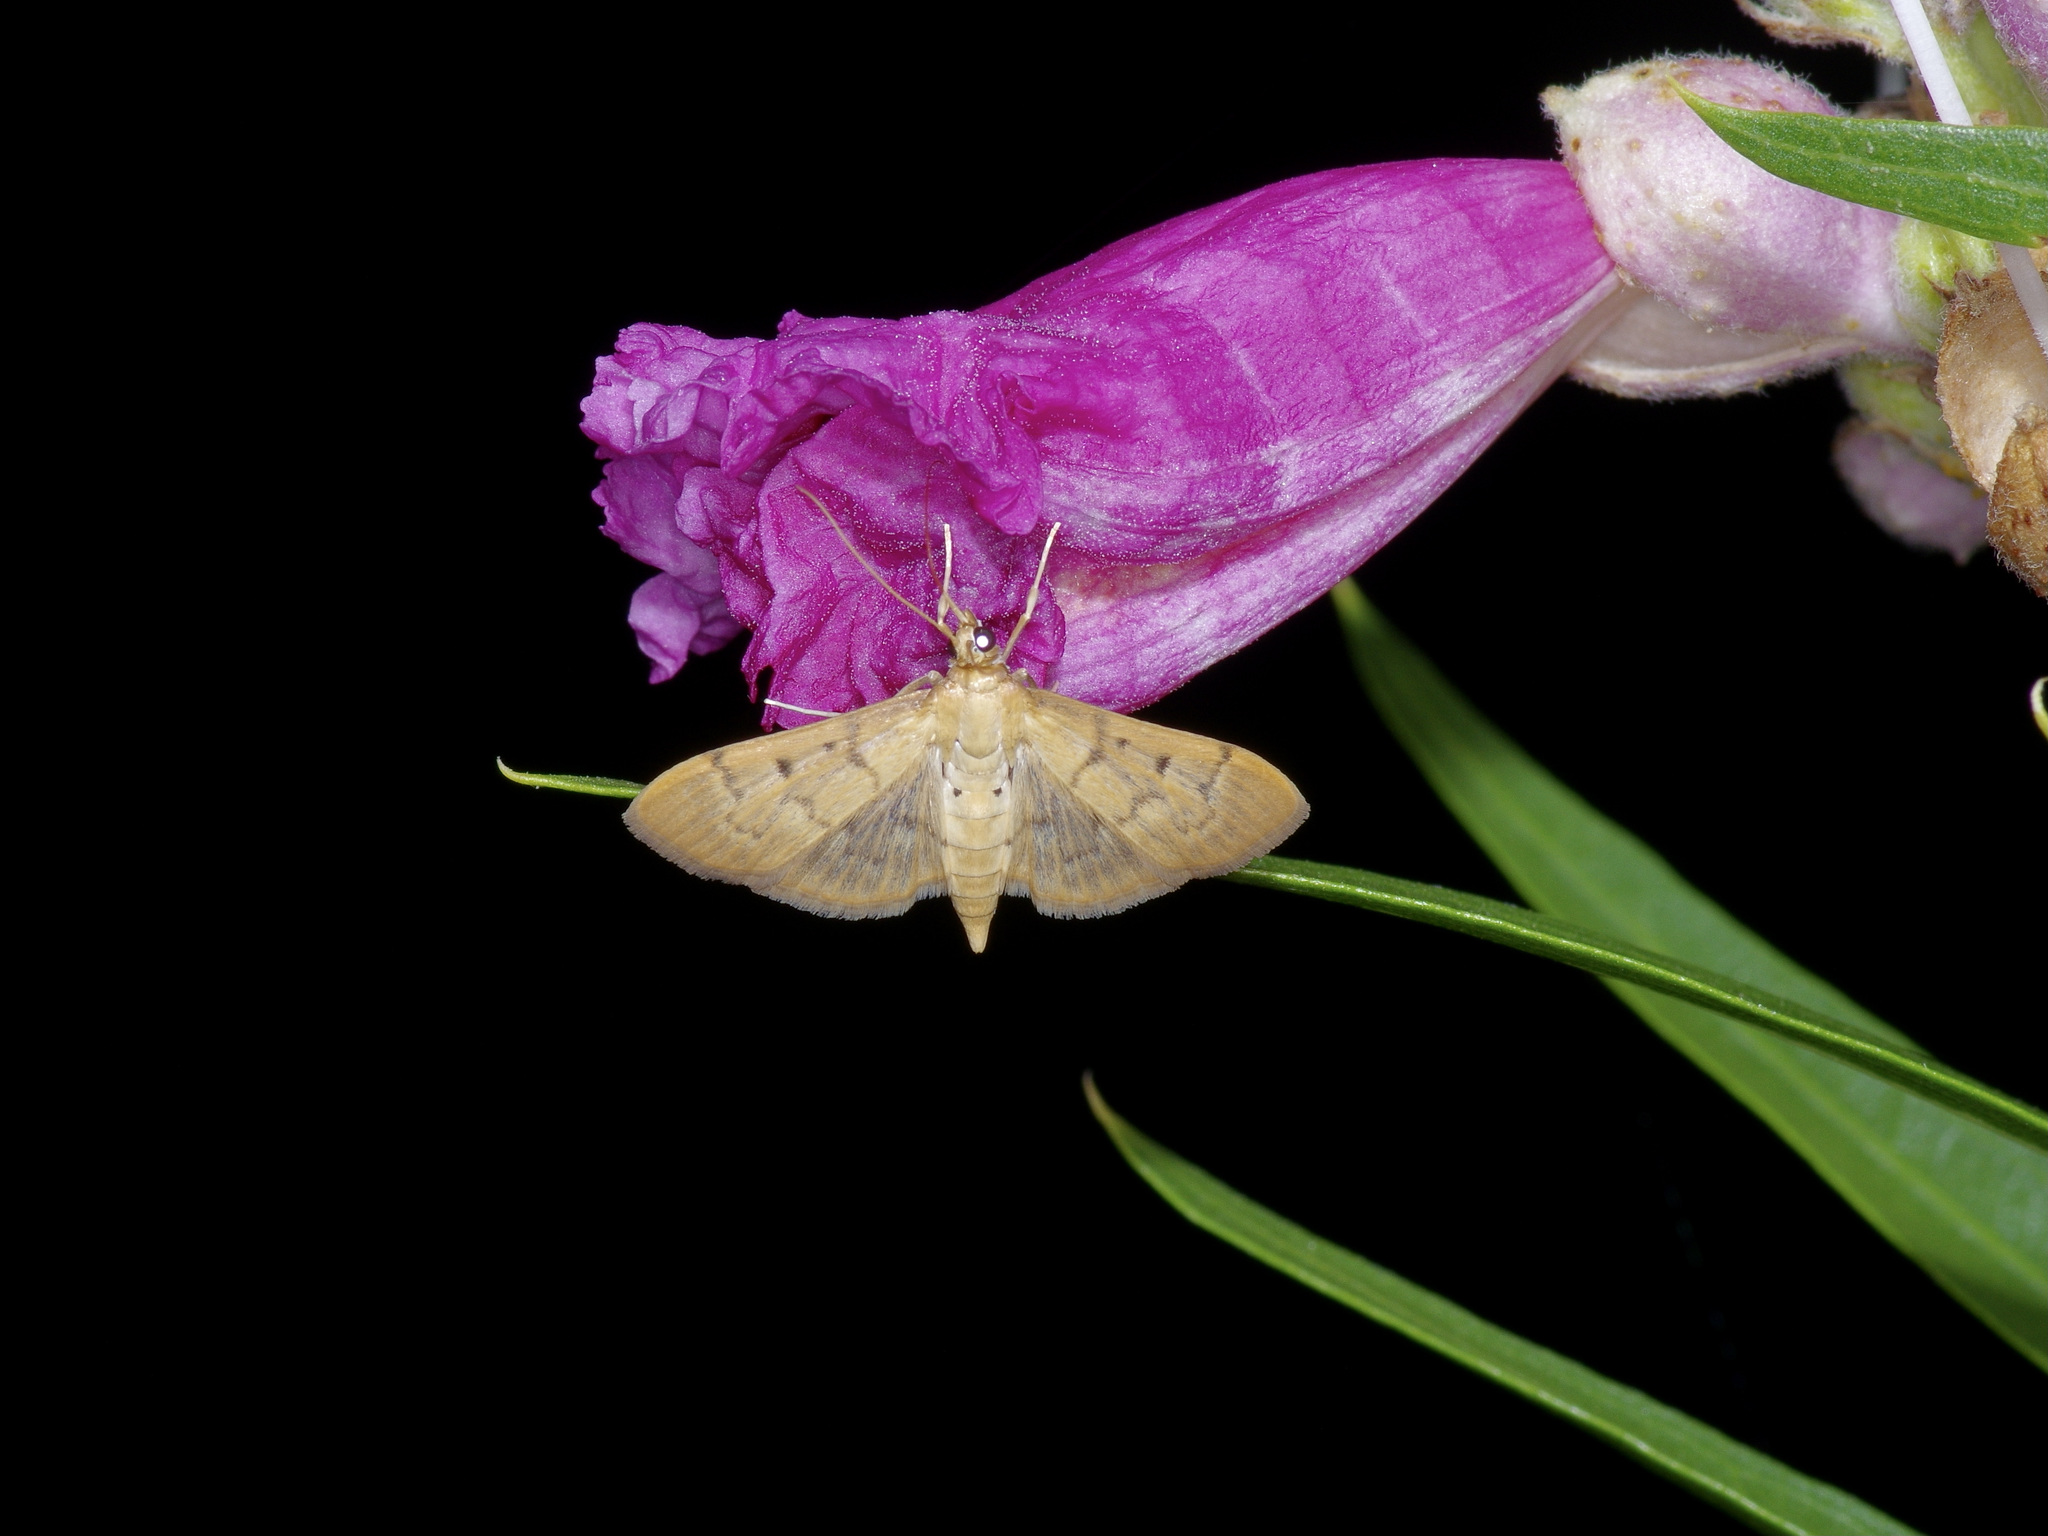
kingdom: Animalia
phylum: Arthropoda
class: Insecta
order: Lepidoptera
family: Crambidae
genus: Herpetogramma
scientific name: Herpetogramma bipunctalis
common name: Southern beet webworm
